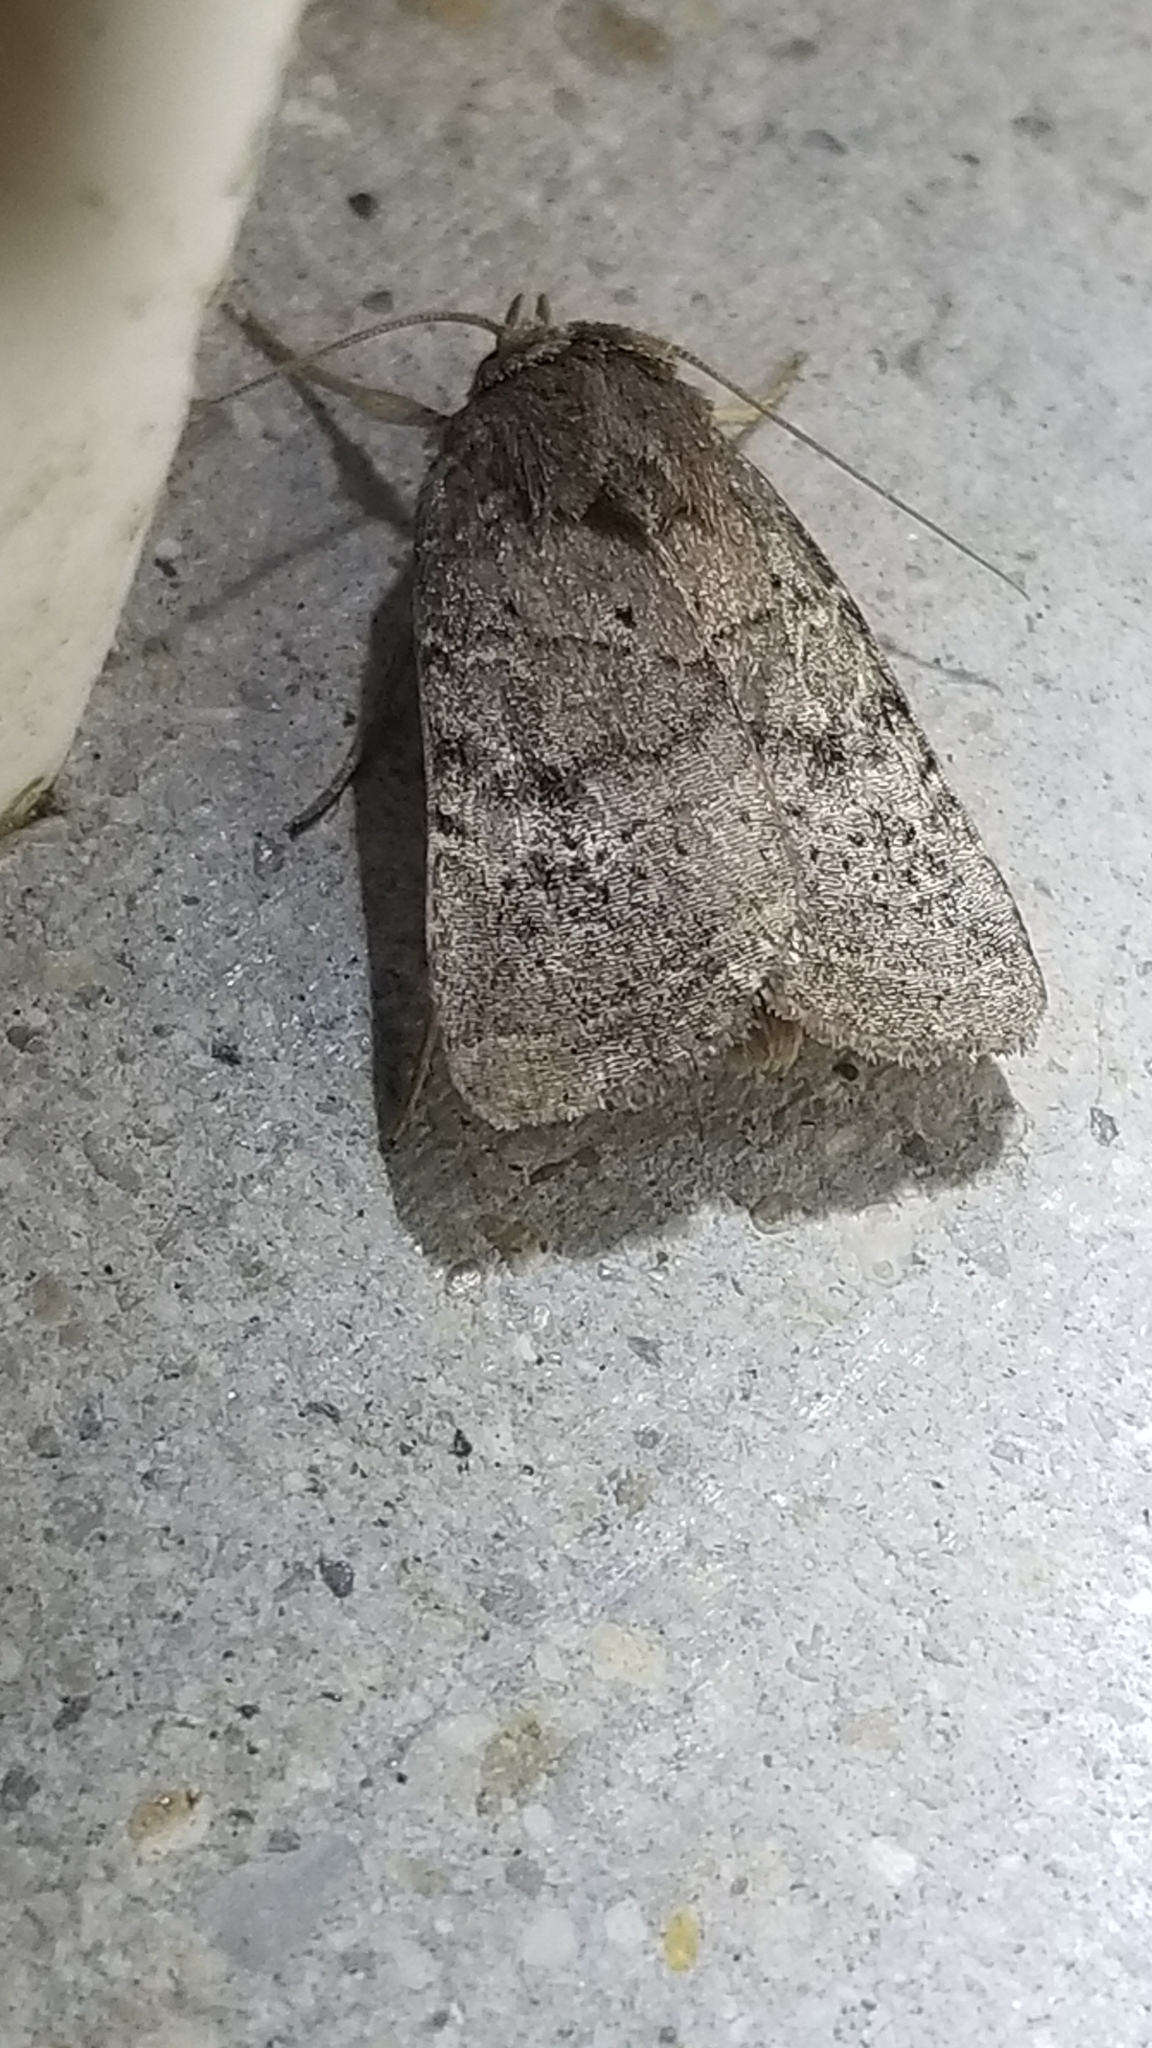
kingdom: Animalia
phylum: Arthropoda
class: Insecta
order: Lepidoptera
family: Noctuidae
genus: Orthodes
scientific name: Orthodes majuscula
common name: Rustic quaker
